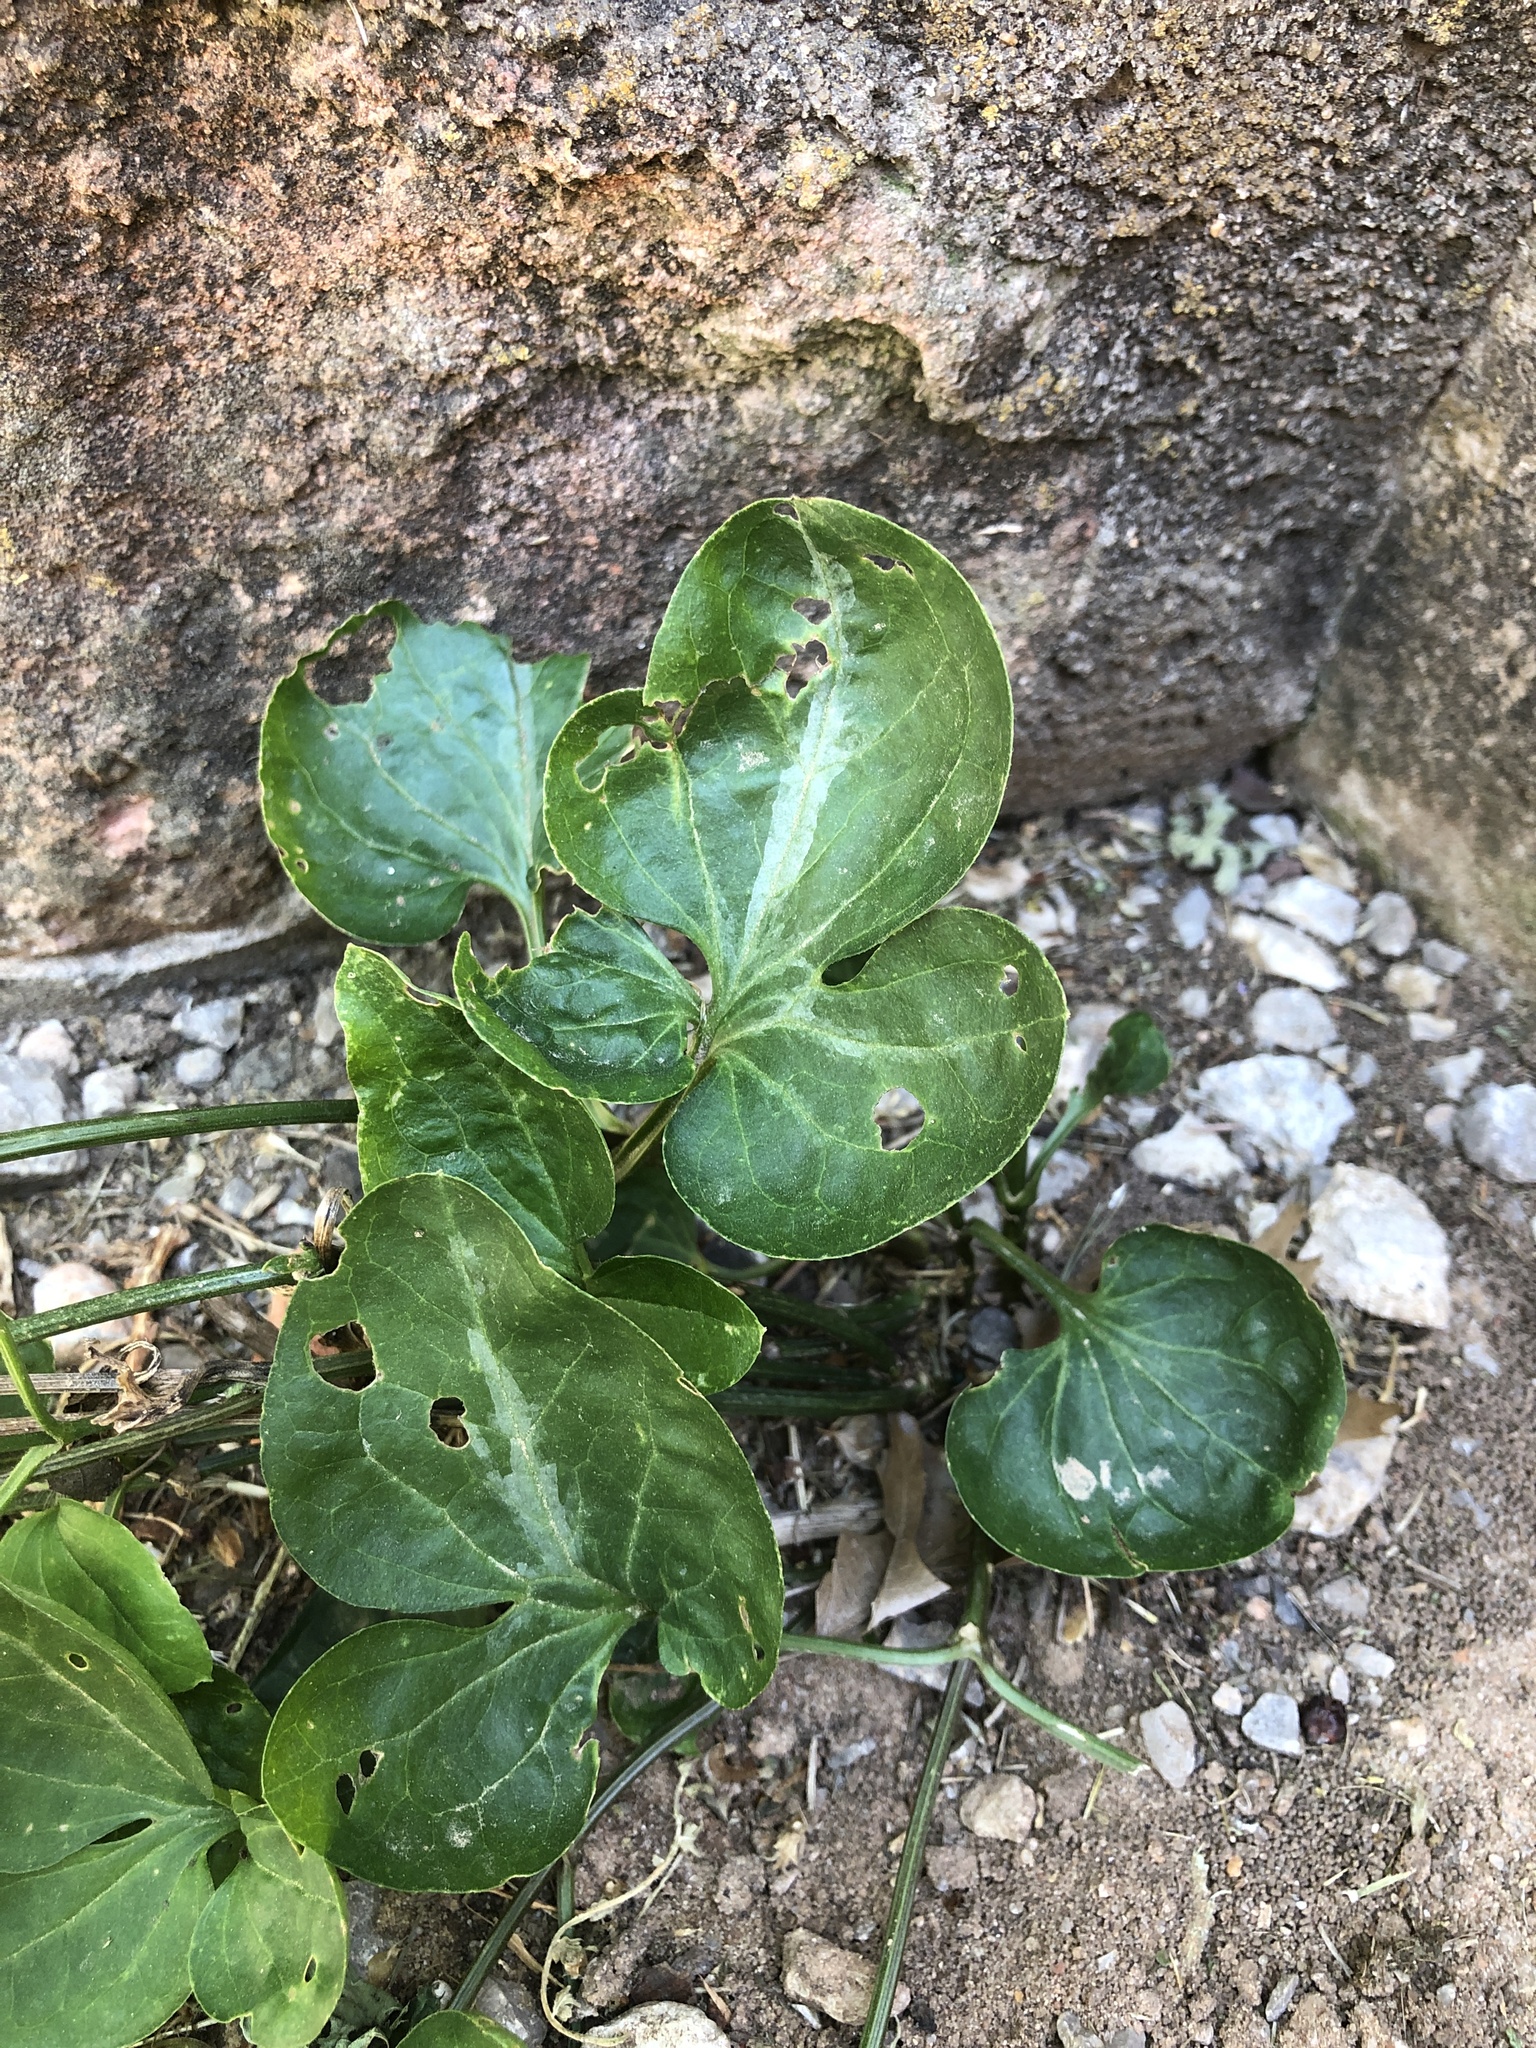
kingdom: Plantae
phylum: Tracheophyta
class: Magnoliopsida
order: Ranunculales
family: Ranunculaceae
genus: Clematis
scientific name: Clematis terniflora
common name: Sweet autumn clematis
